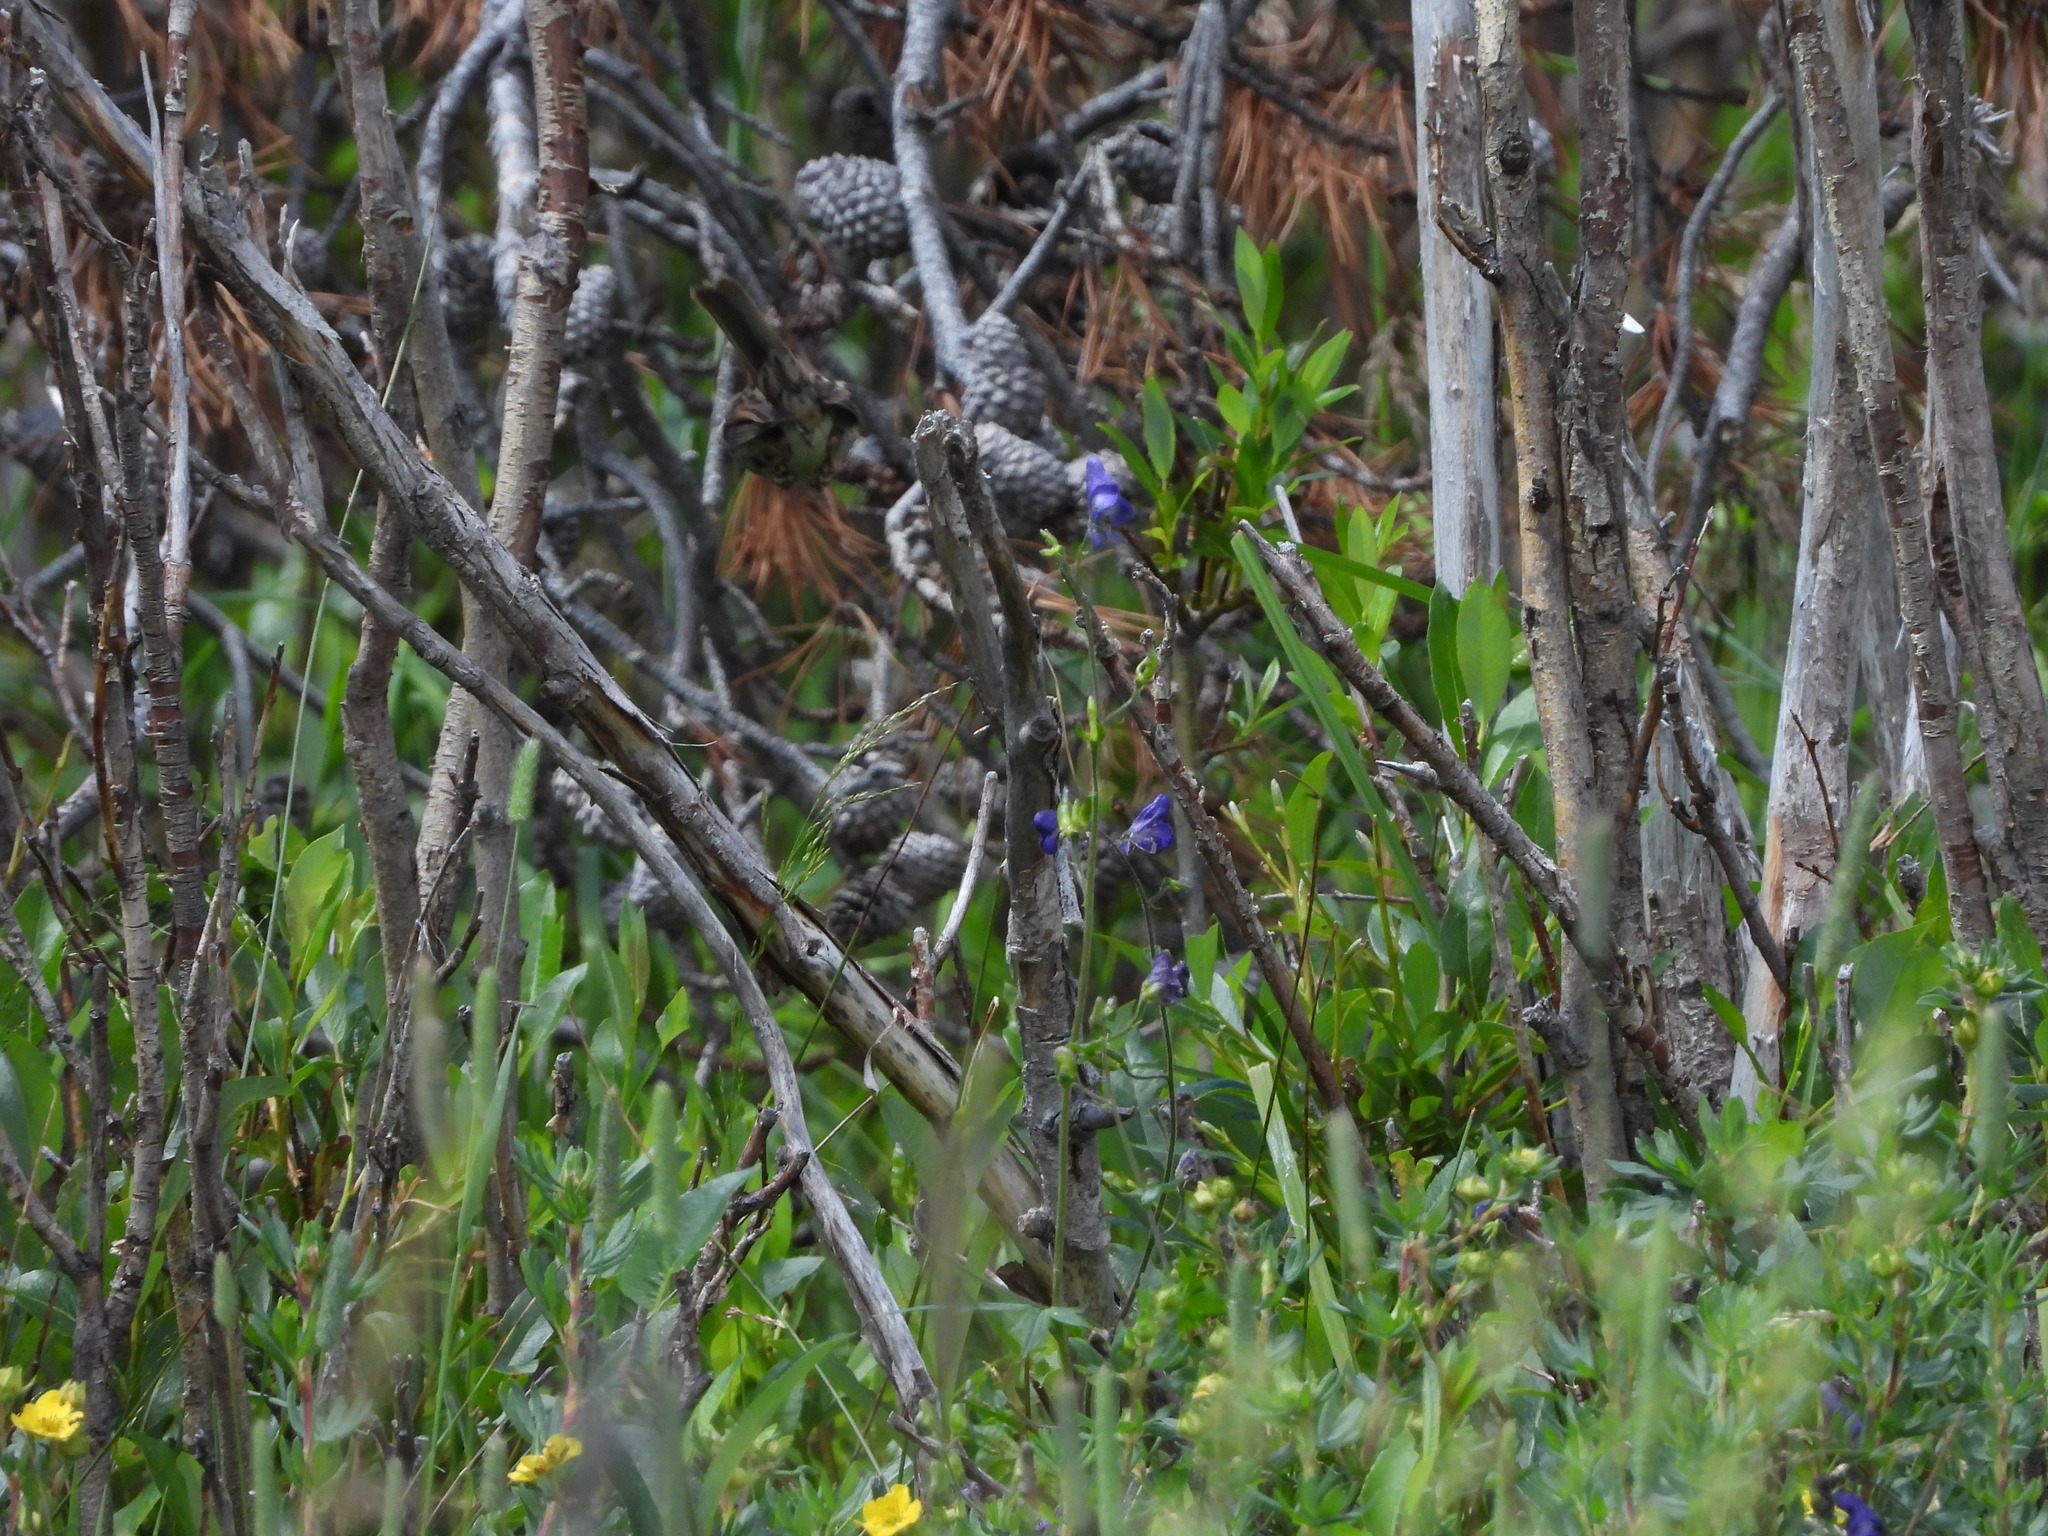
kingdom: Plantae
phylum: Tracheophyta
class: Magnoliopsida
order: Ranunculales
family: Ranunculaceae
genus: Aconitum
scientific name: Aconitum columbianum
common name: Columbia aconite
